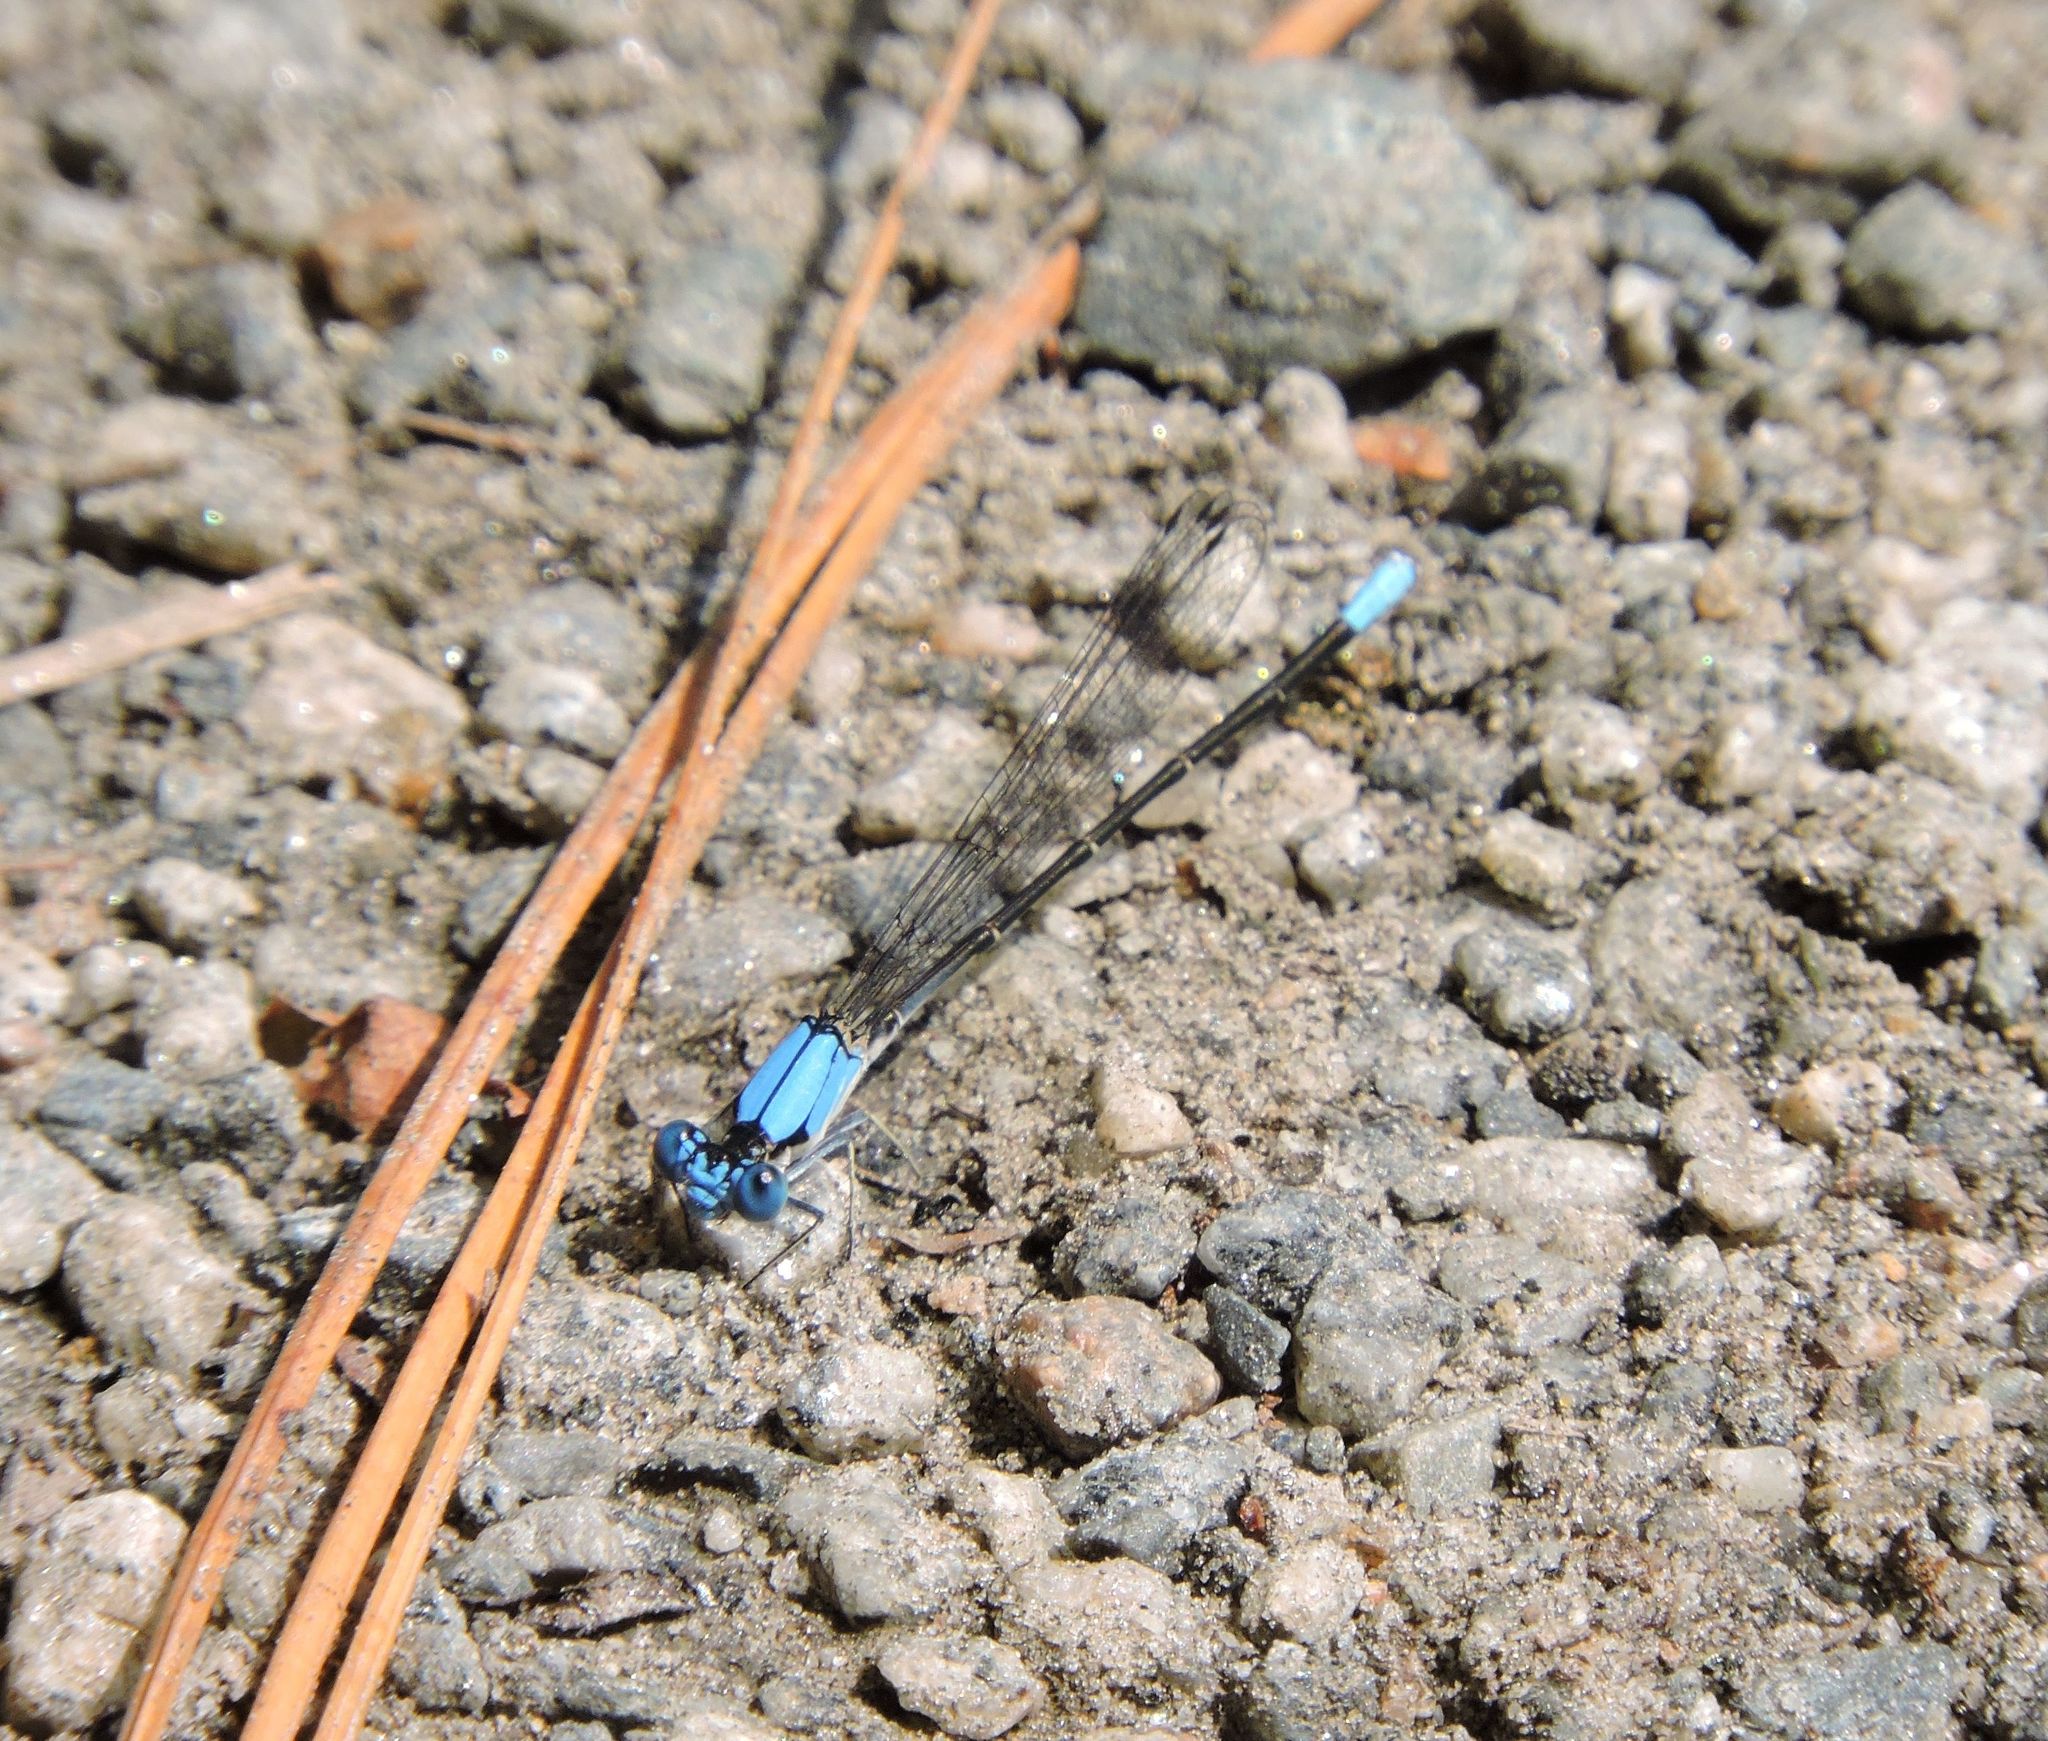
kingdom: Animalia
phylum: Arthropoda
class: Insecta
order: Odonata
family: Coenagrionidae
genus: Argia
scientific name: Argia apicalis
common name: Blue-fronted dancer
